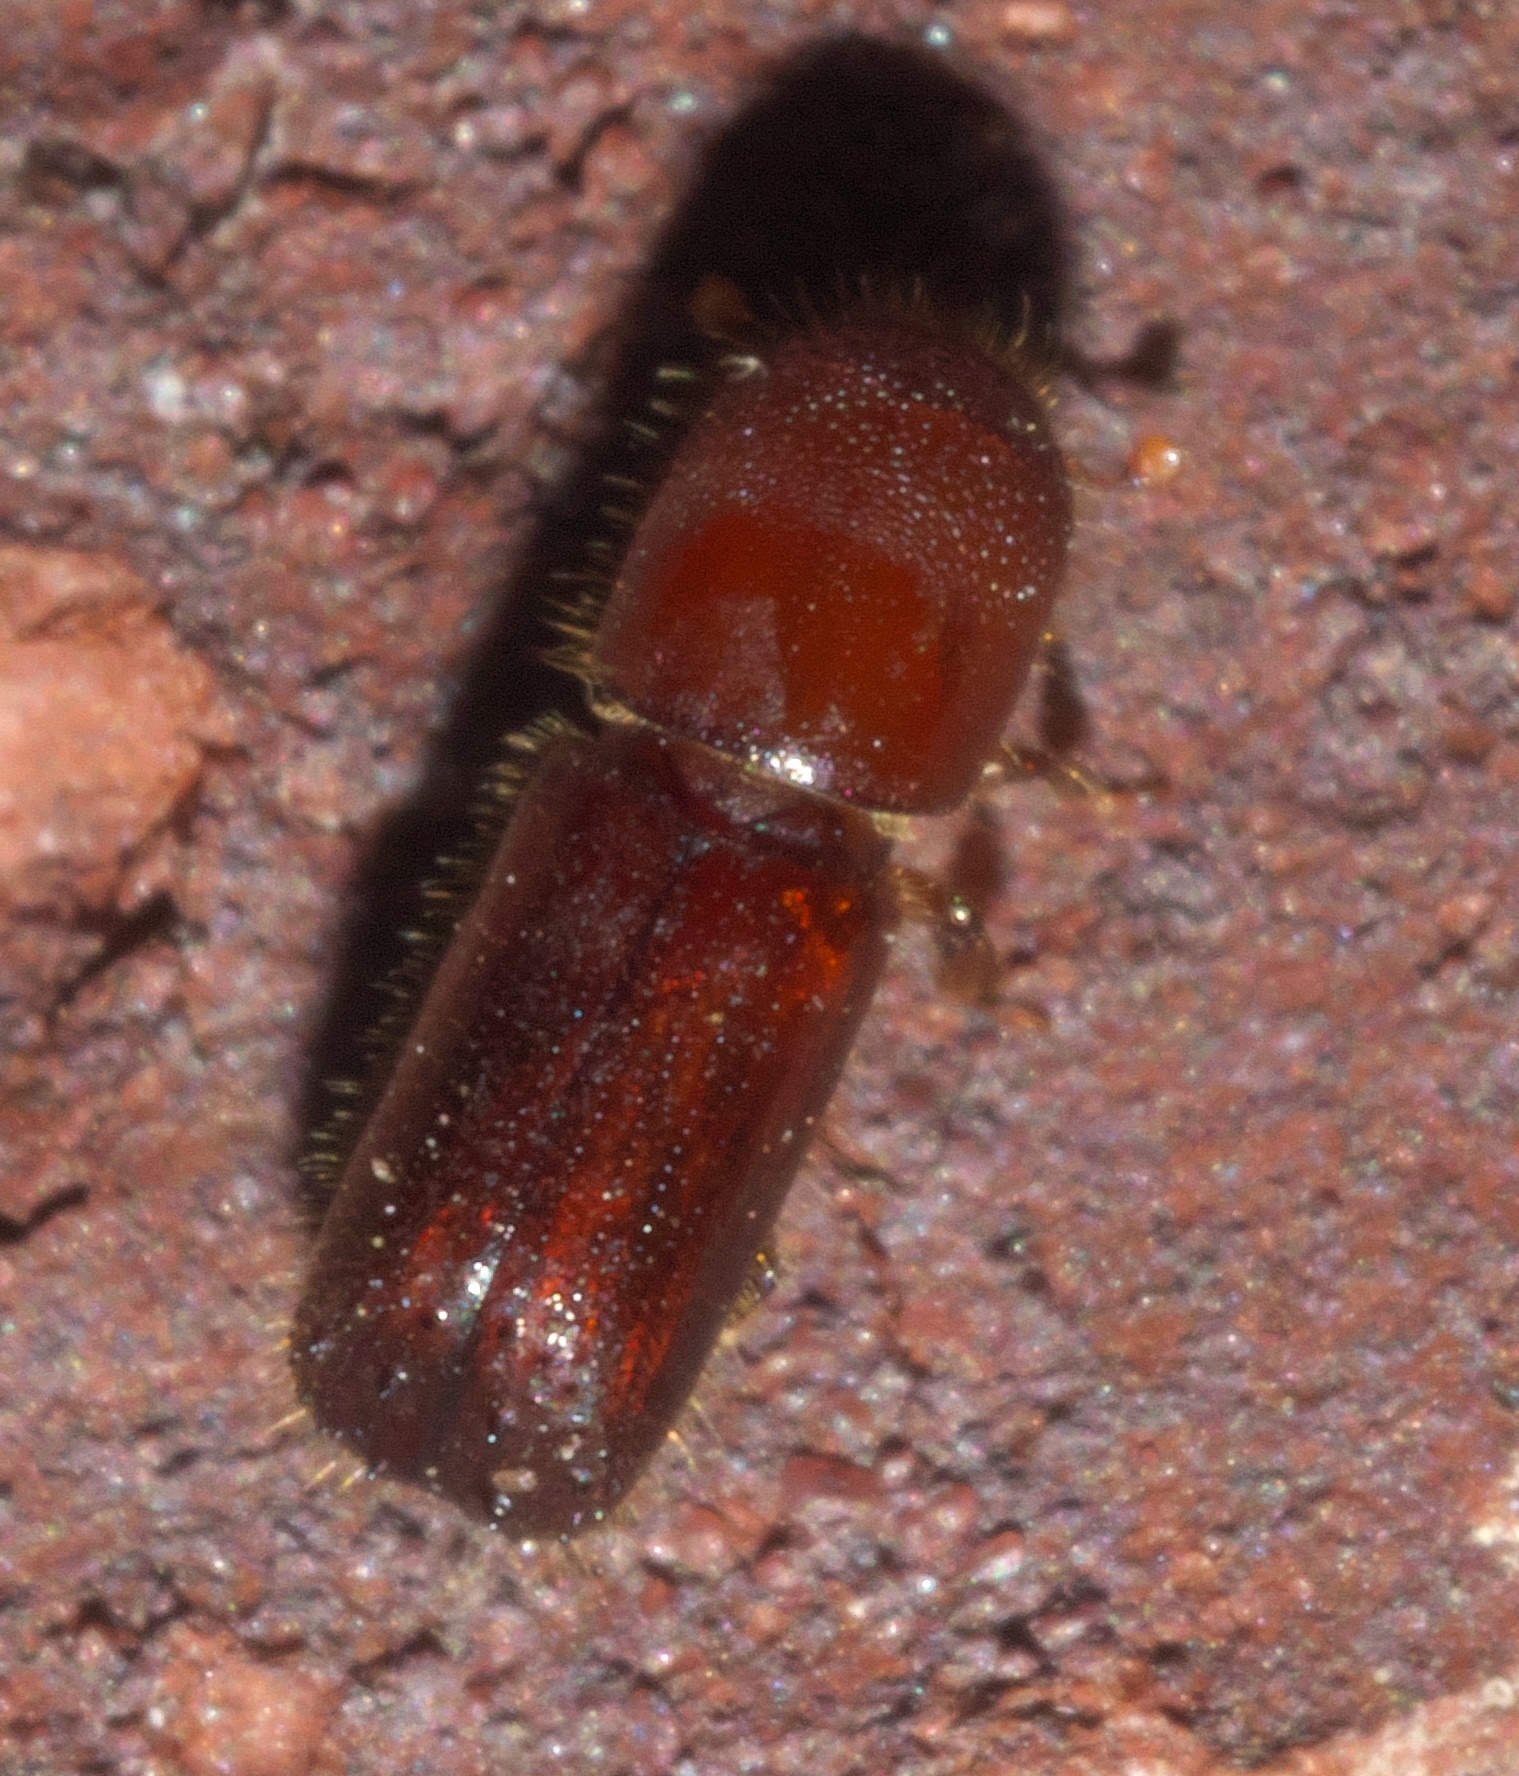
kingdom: Animalia
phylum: Arthropoda
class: Insecta
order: Coleoptera
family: Curculionidae
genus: Xyleborus
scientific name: Xyleborus celsus
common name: Weevil
